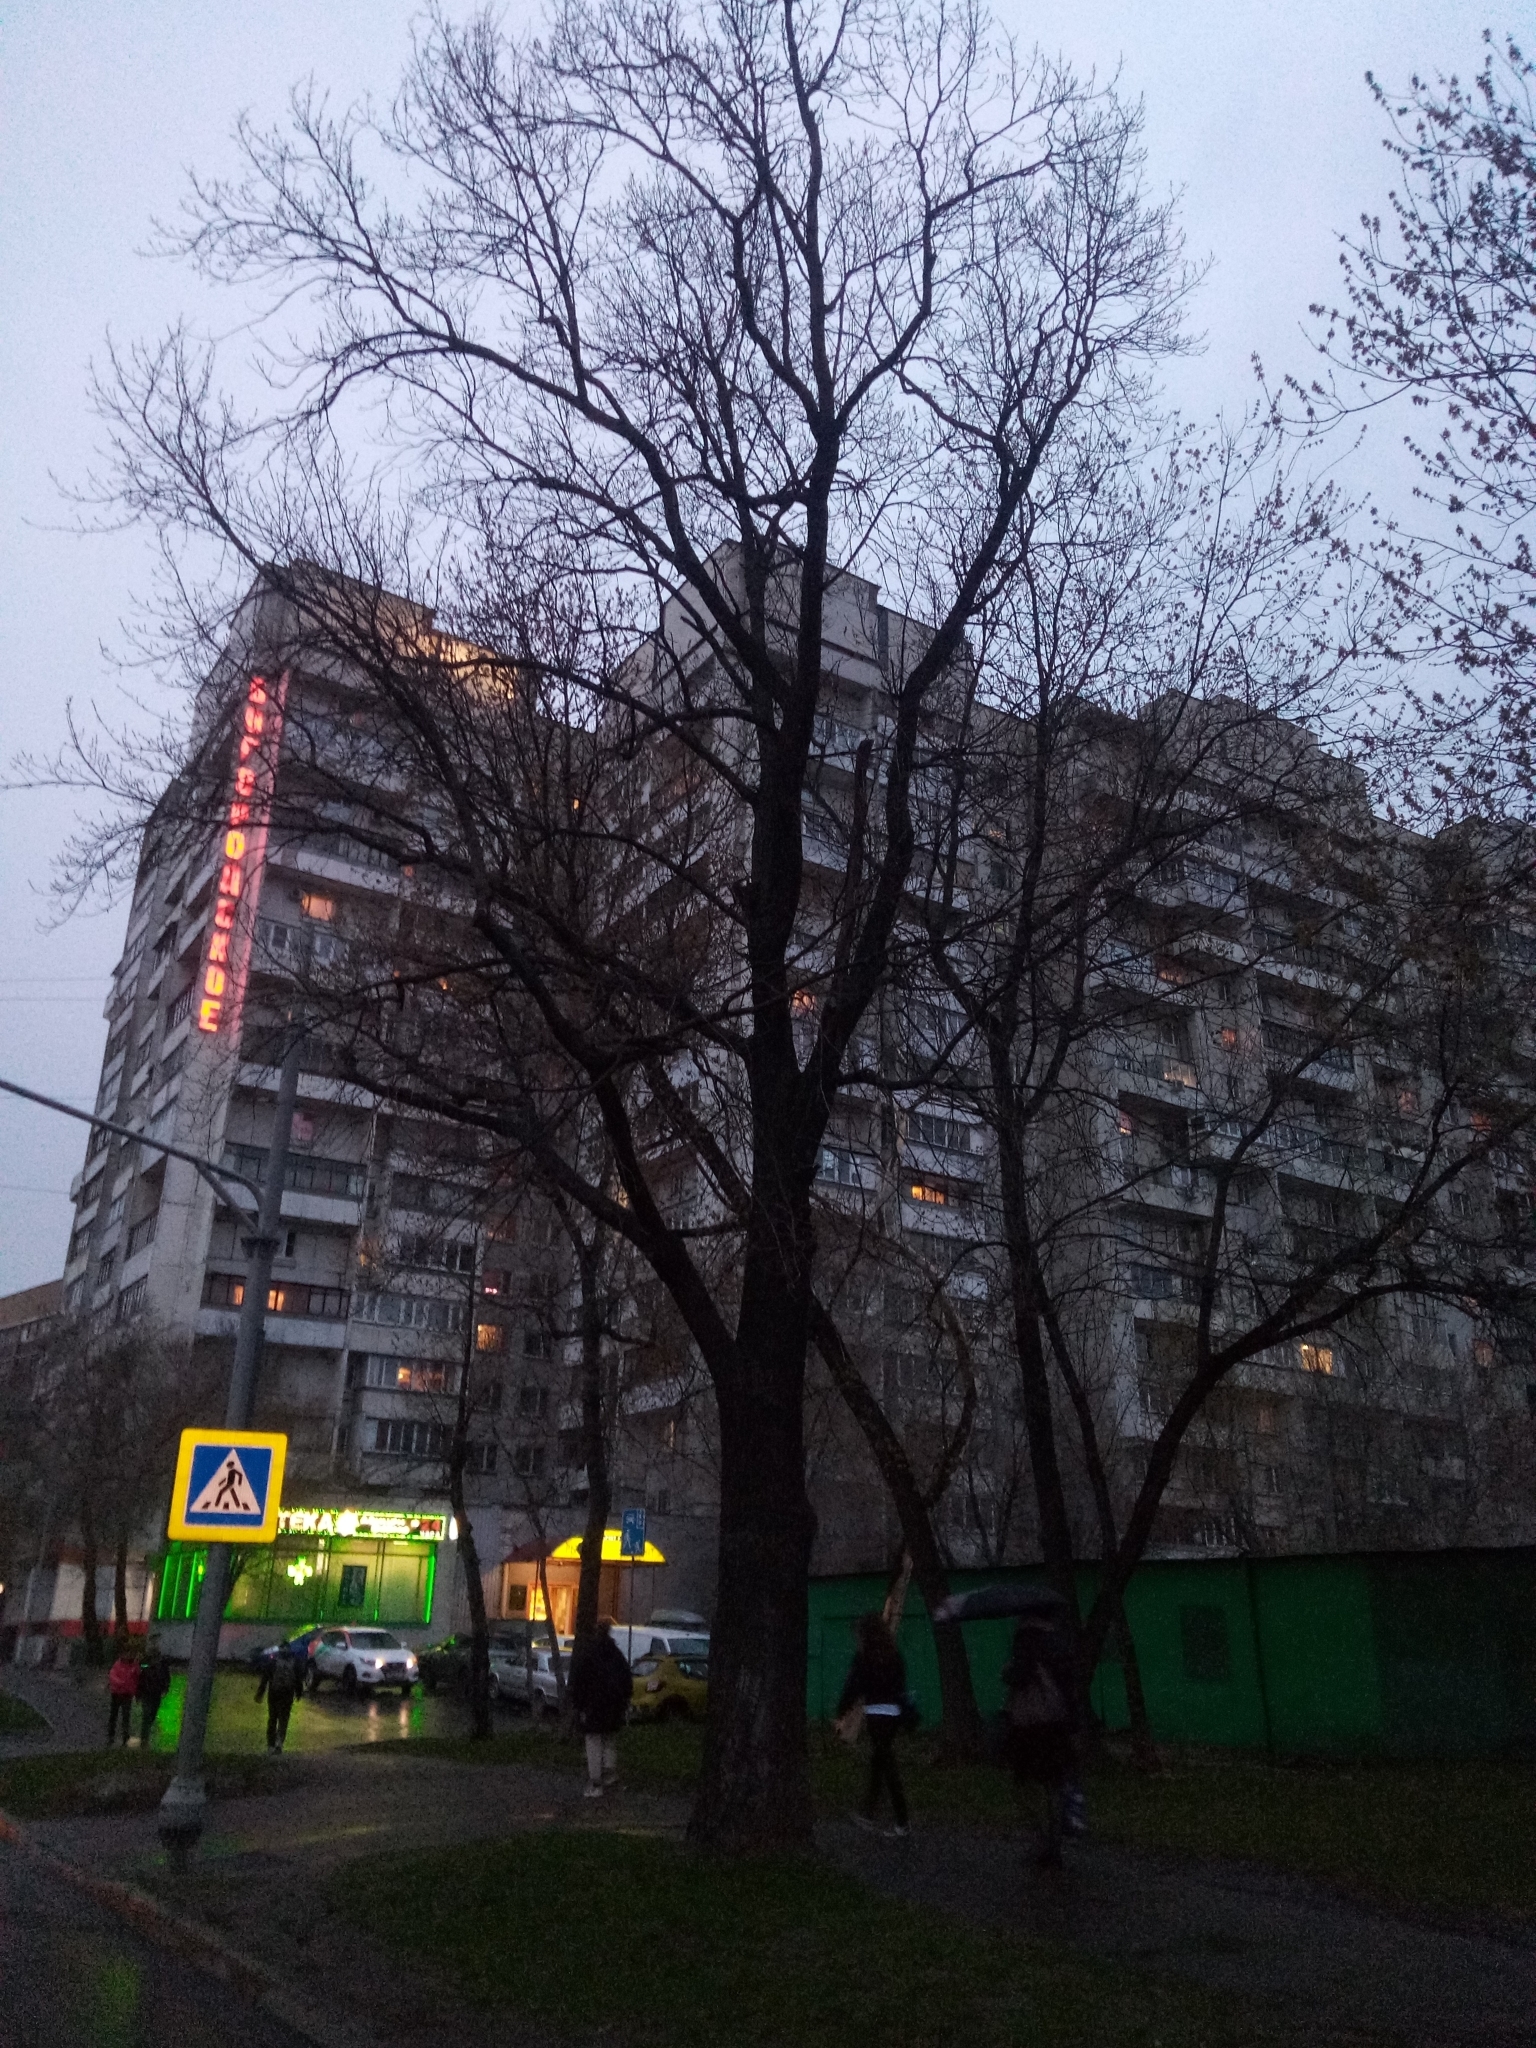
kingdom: Plantae
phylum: Tracheophyta
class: Magnoliopsida
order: Fagales
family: Fagaceae
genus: Quercus
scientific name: Quercus robur
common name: Pedunculate oak
